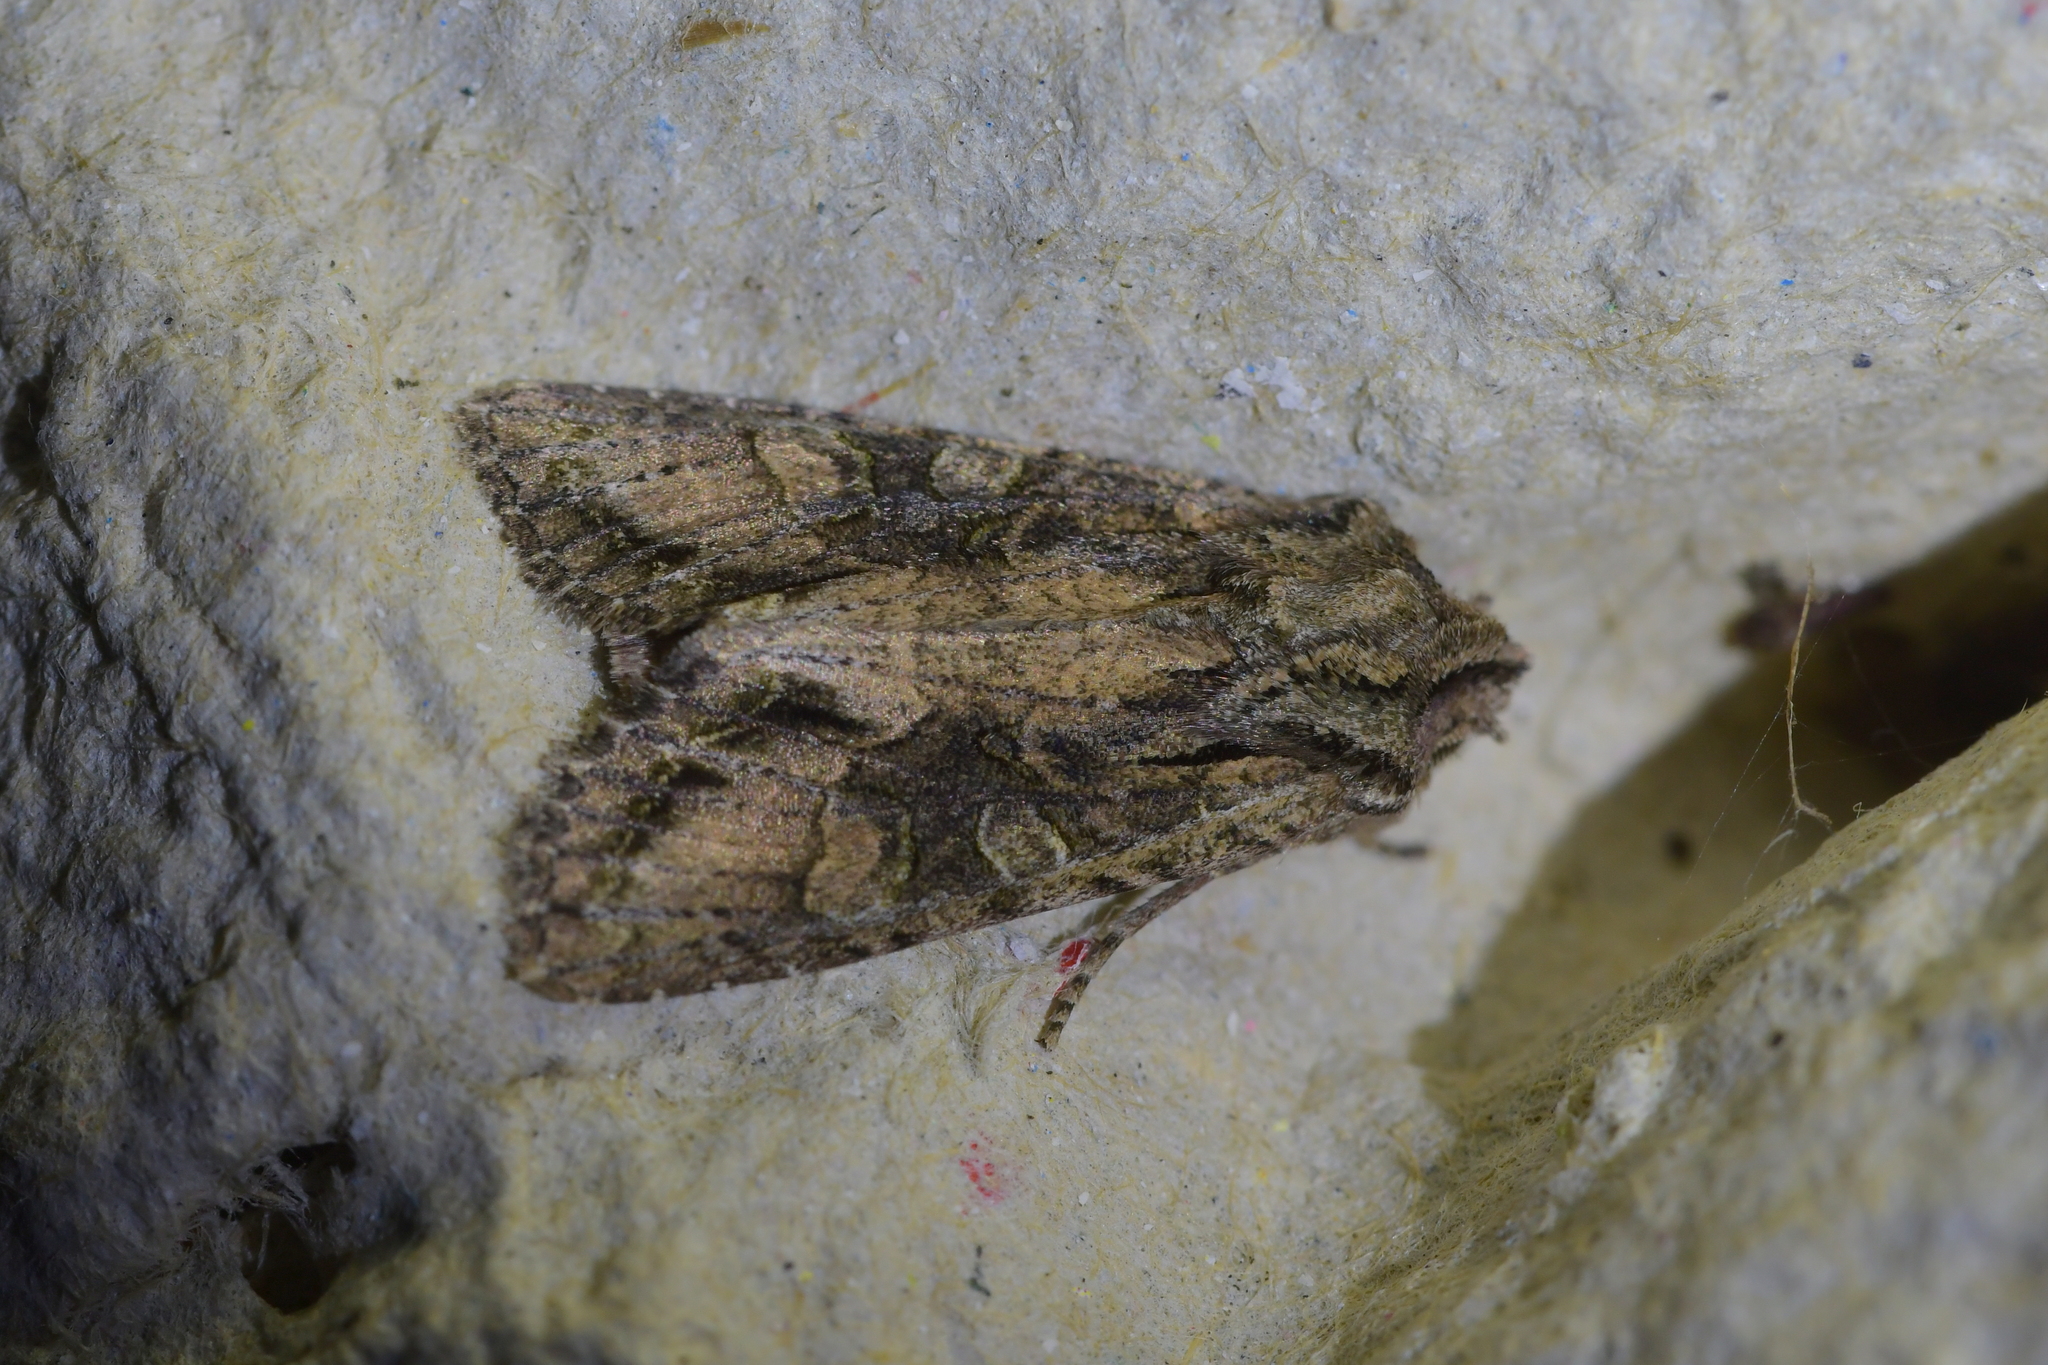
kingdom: Animalia
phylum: Arthropoda
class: Insecta
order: Lepidoptera
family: Noctuidae
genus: Ichneutica
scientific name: Ichneutica mutans
